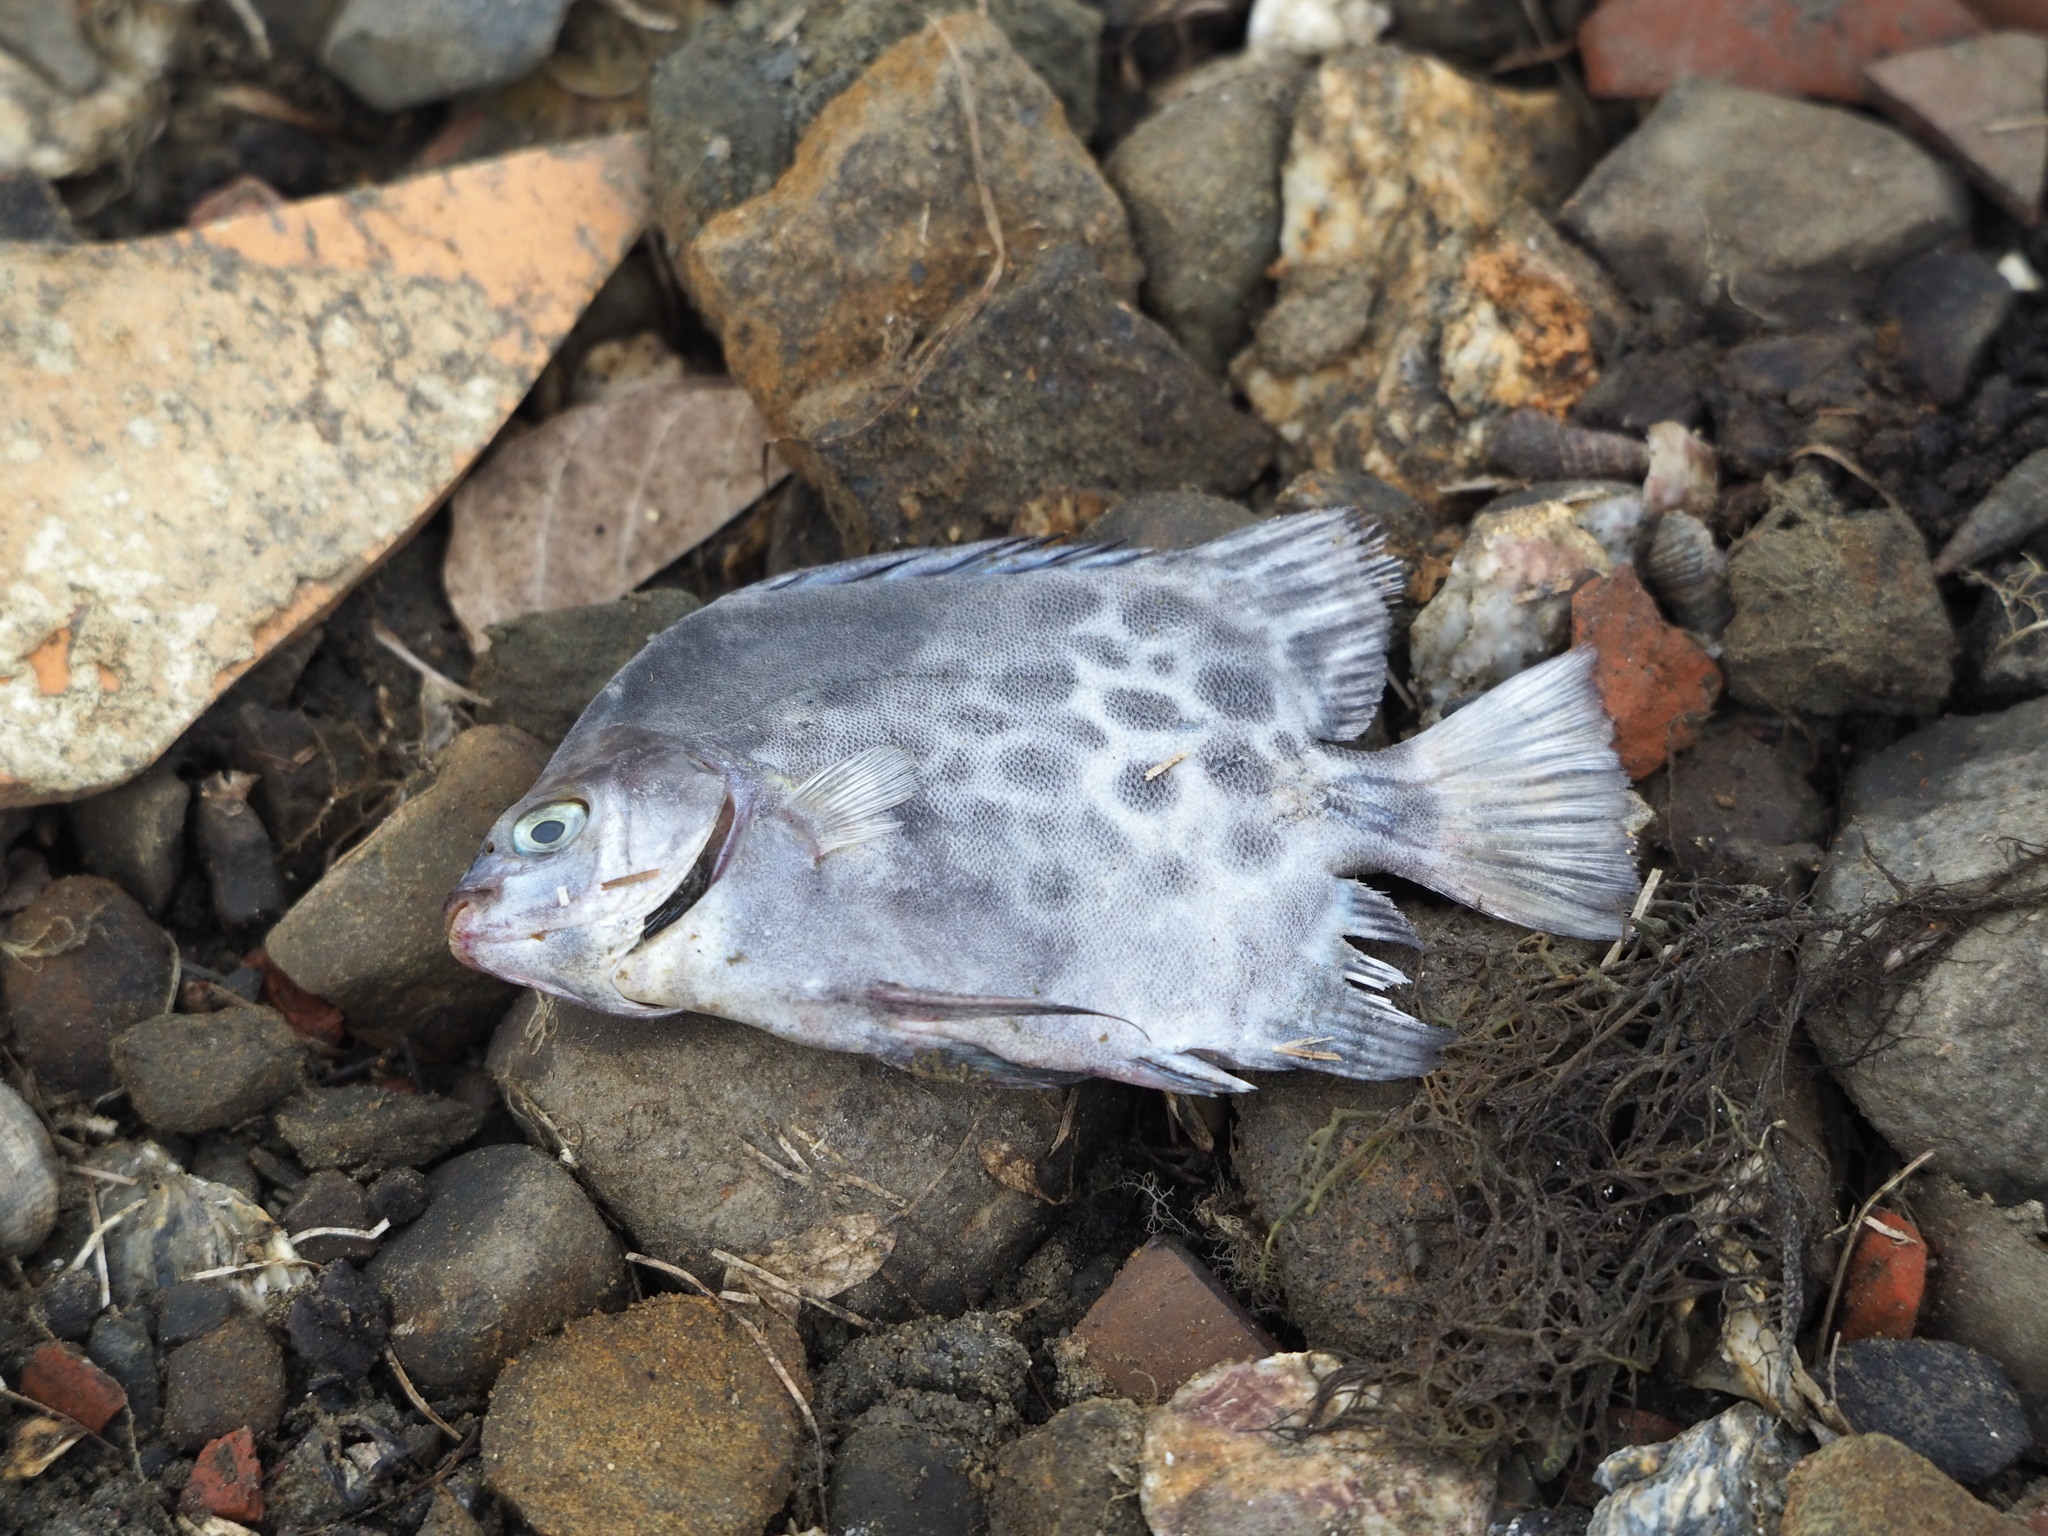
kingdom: Animalia
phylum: Chordata
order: Perciformes
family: Scatophagidae
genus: Scatophagus
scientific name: Scatophagus argus
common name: Spotted scat
